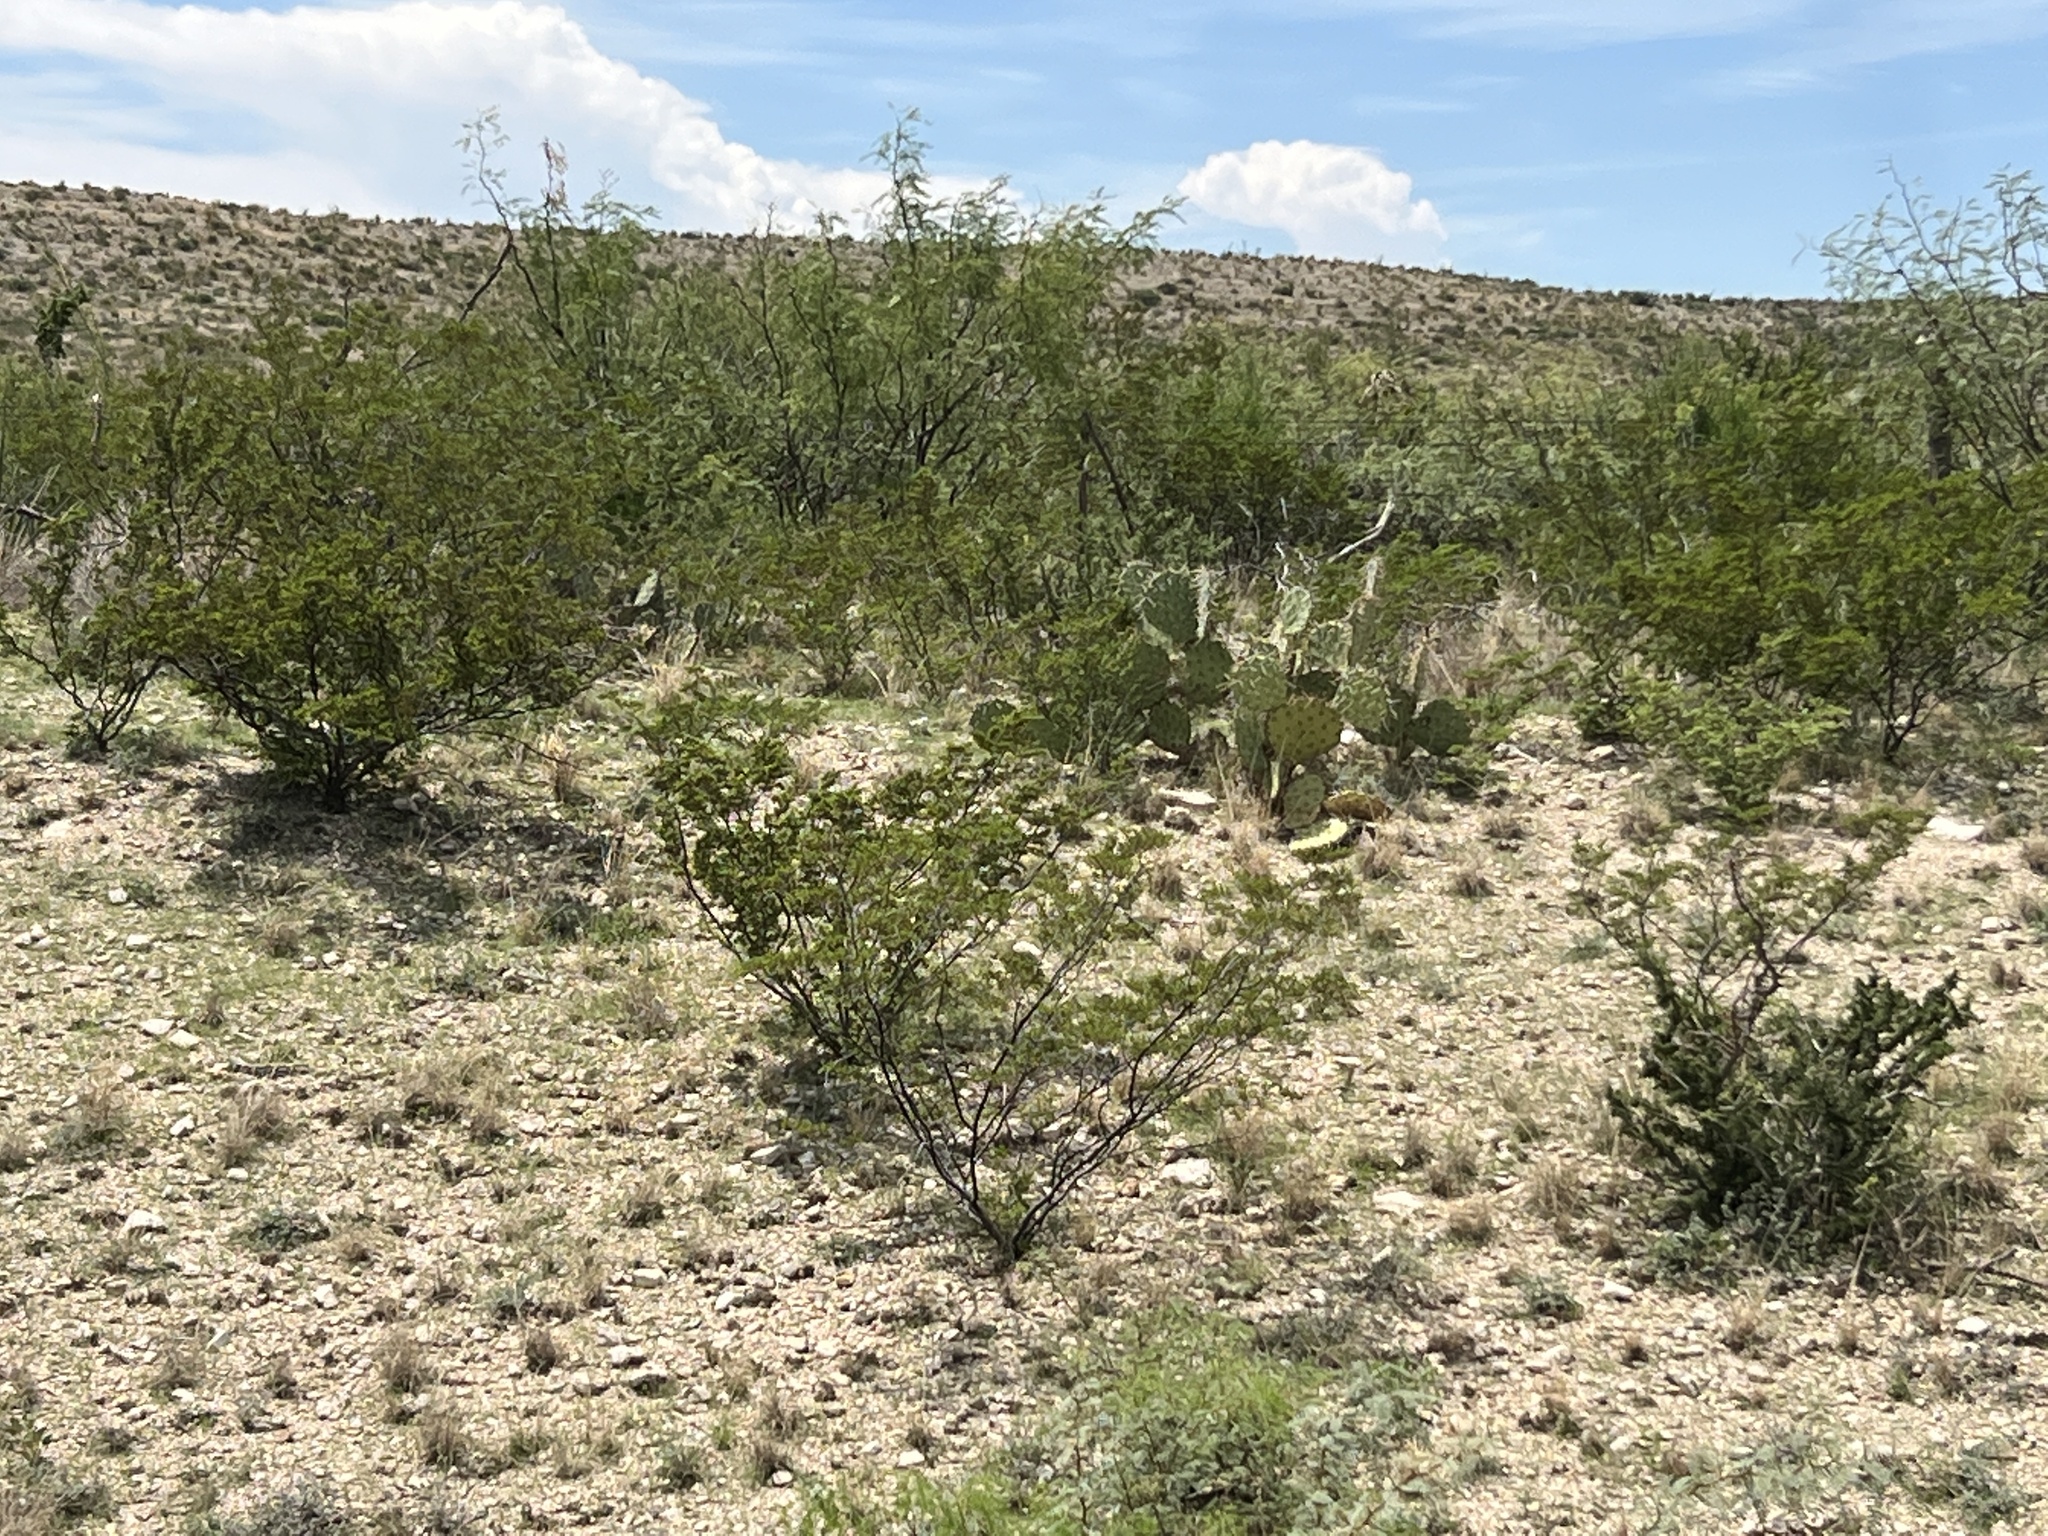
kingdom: Plantae
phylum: Tracheophyta
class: Magnoliopsida
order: Zygophyllales
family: Zygophyllaceae
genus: Larrea
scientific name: Larrea tridentata
